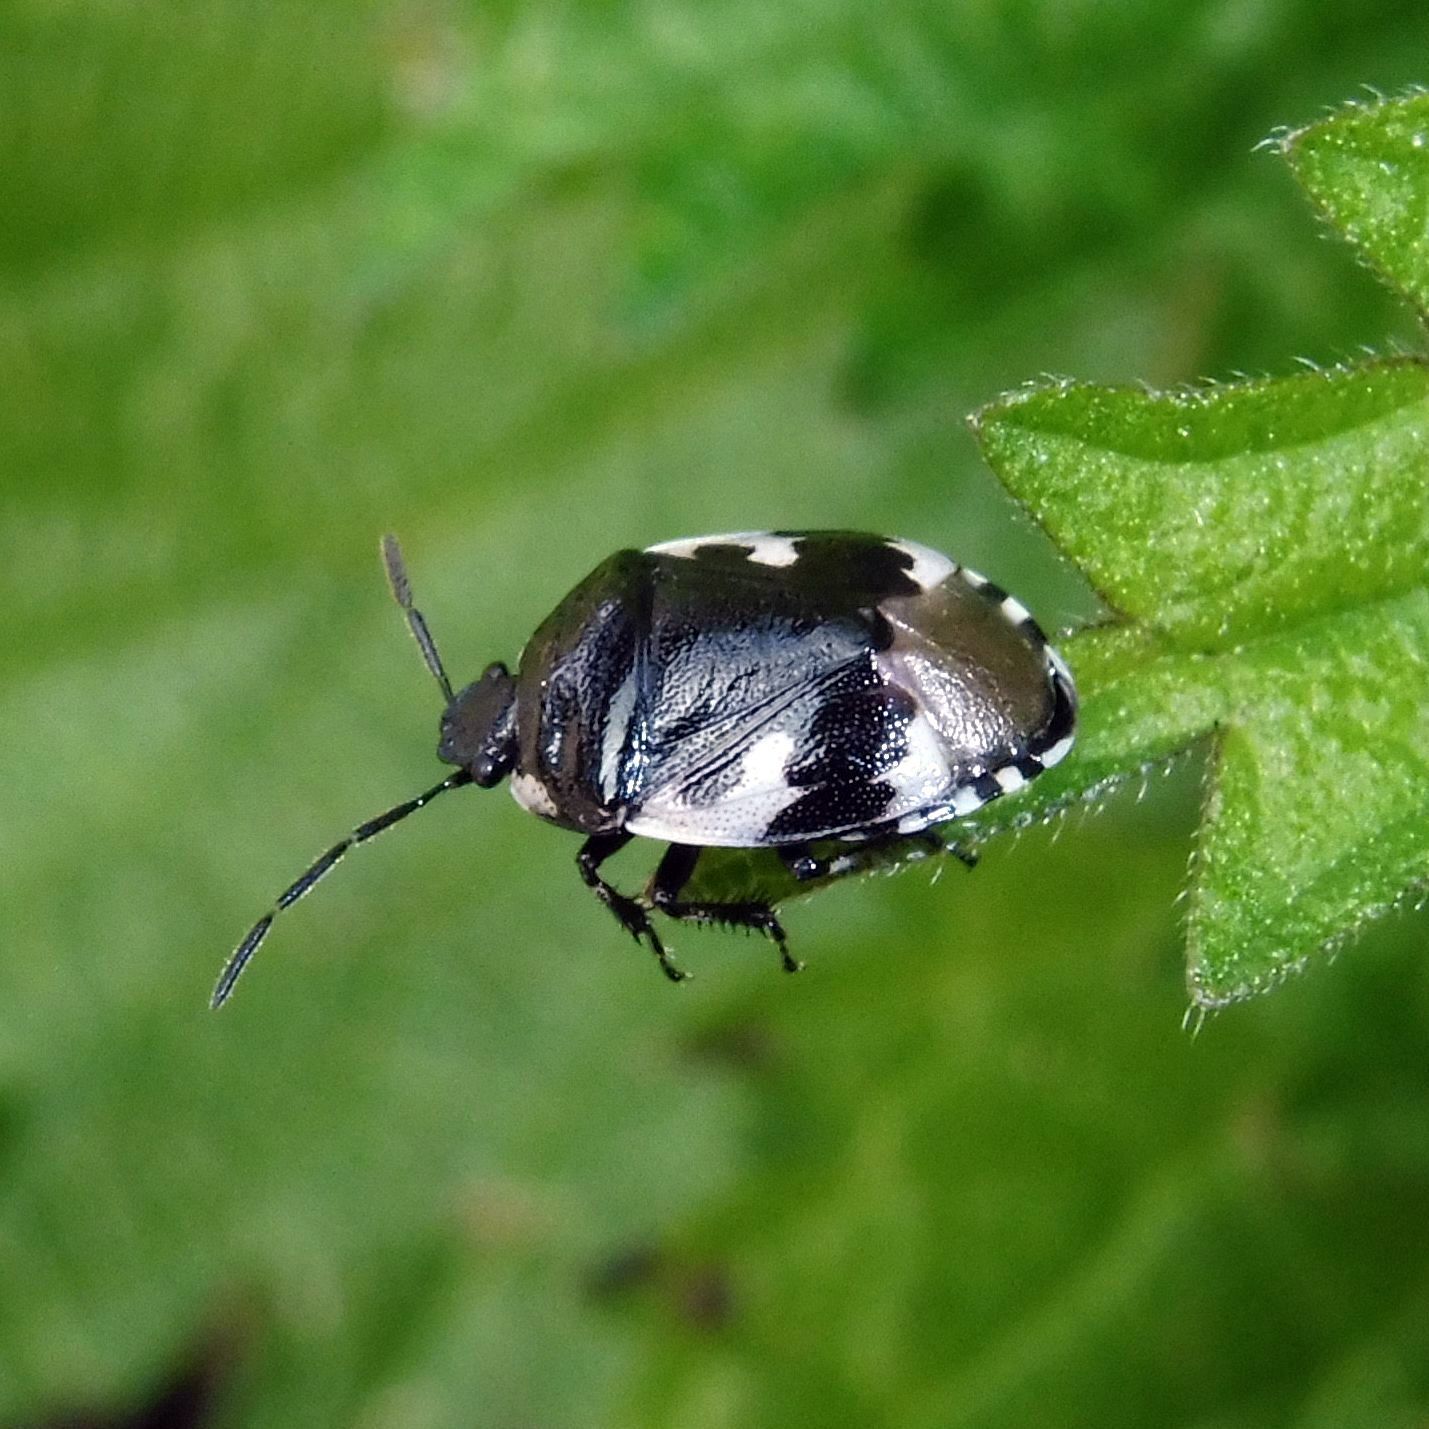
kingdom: Animalia
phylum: Arthropoda
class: Insecta
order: Hemiptera
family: Cydnidae
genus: Tritomegas
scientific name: Tritomegas bicolor
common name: Pied shieldbug
